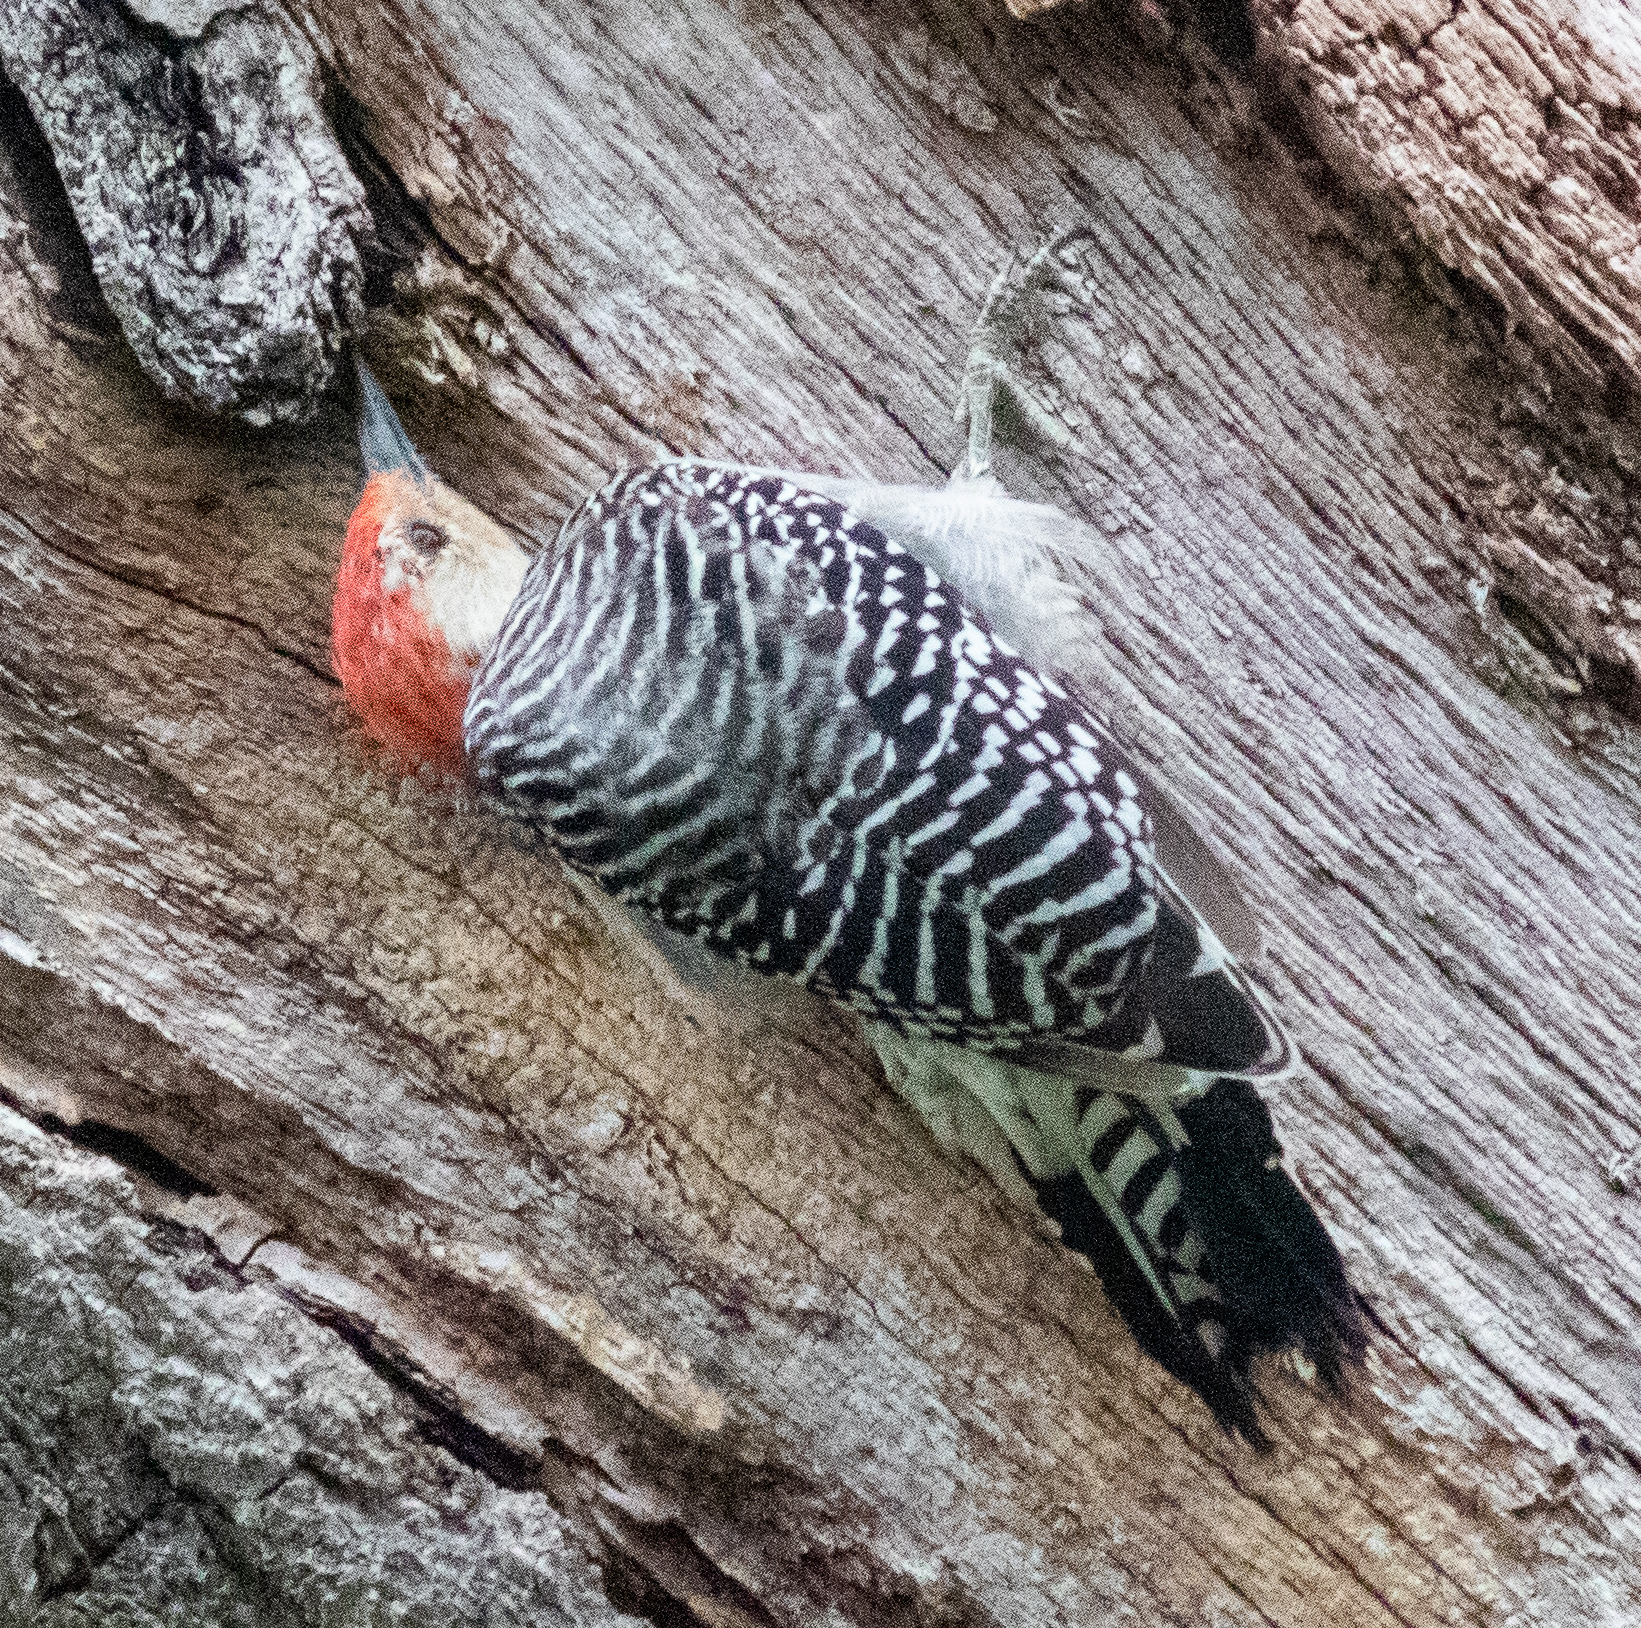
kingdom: Animalia
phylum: Chordata
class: Aves
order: Piciformes
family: Picidae
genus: Melanerpes
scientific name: Melanerpes carolinus
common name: Red-bellied woodpecker
